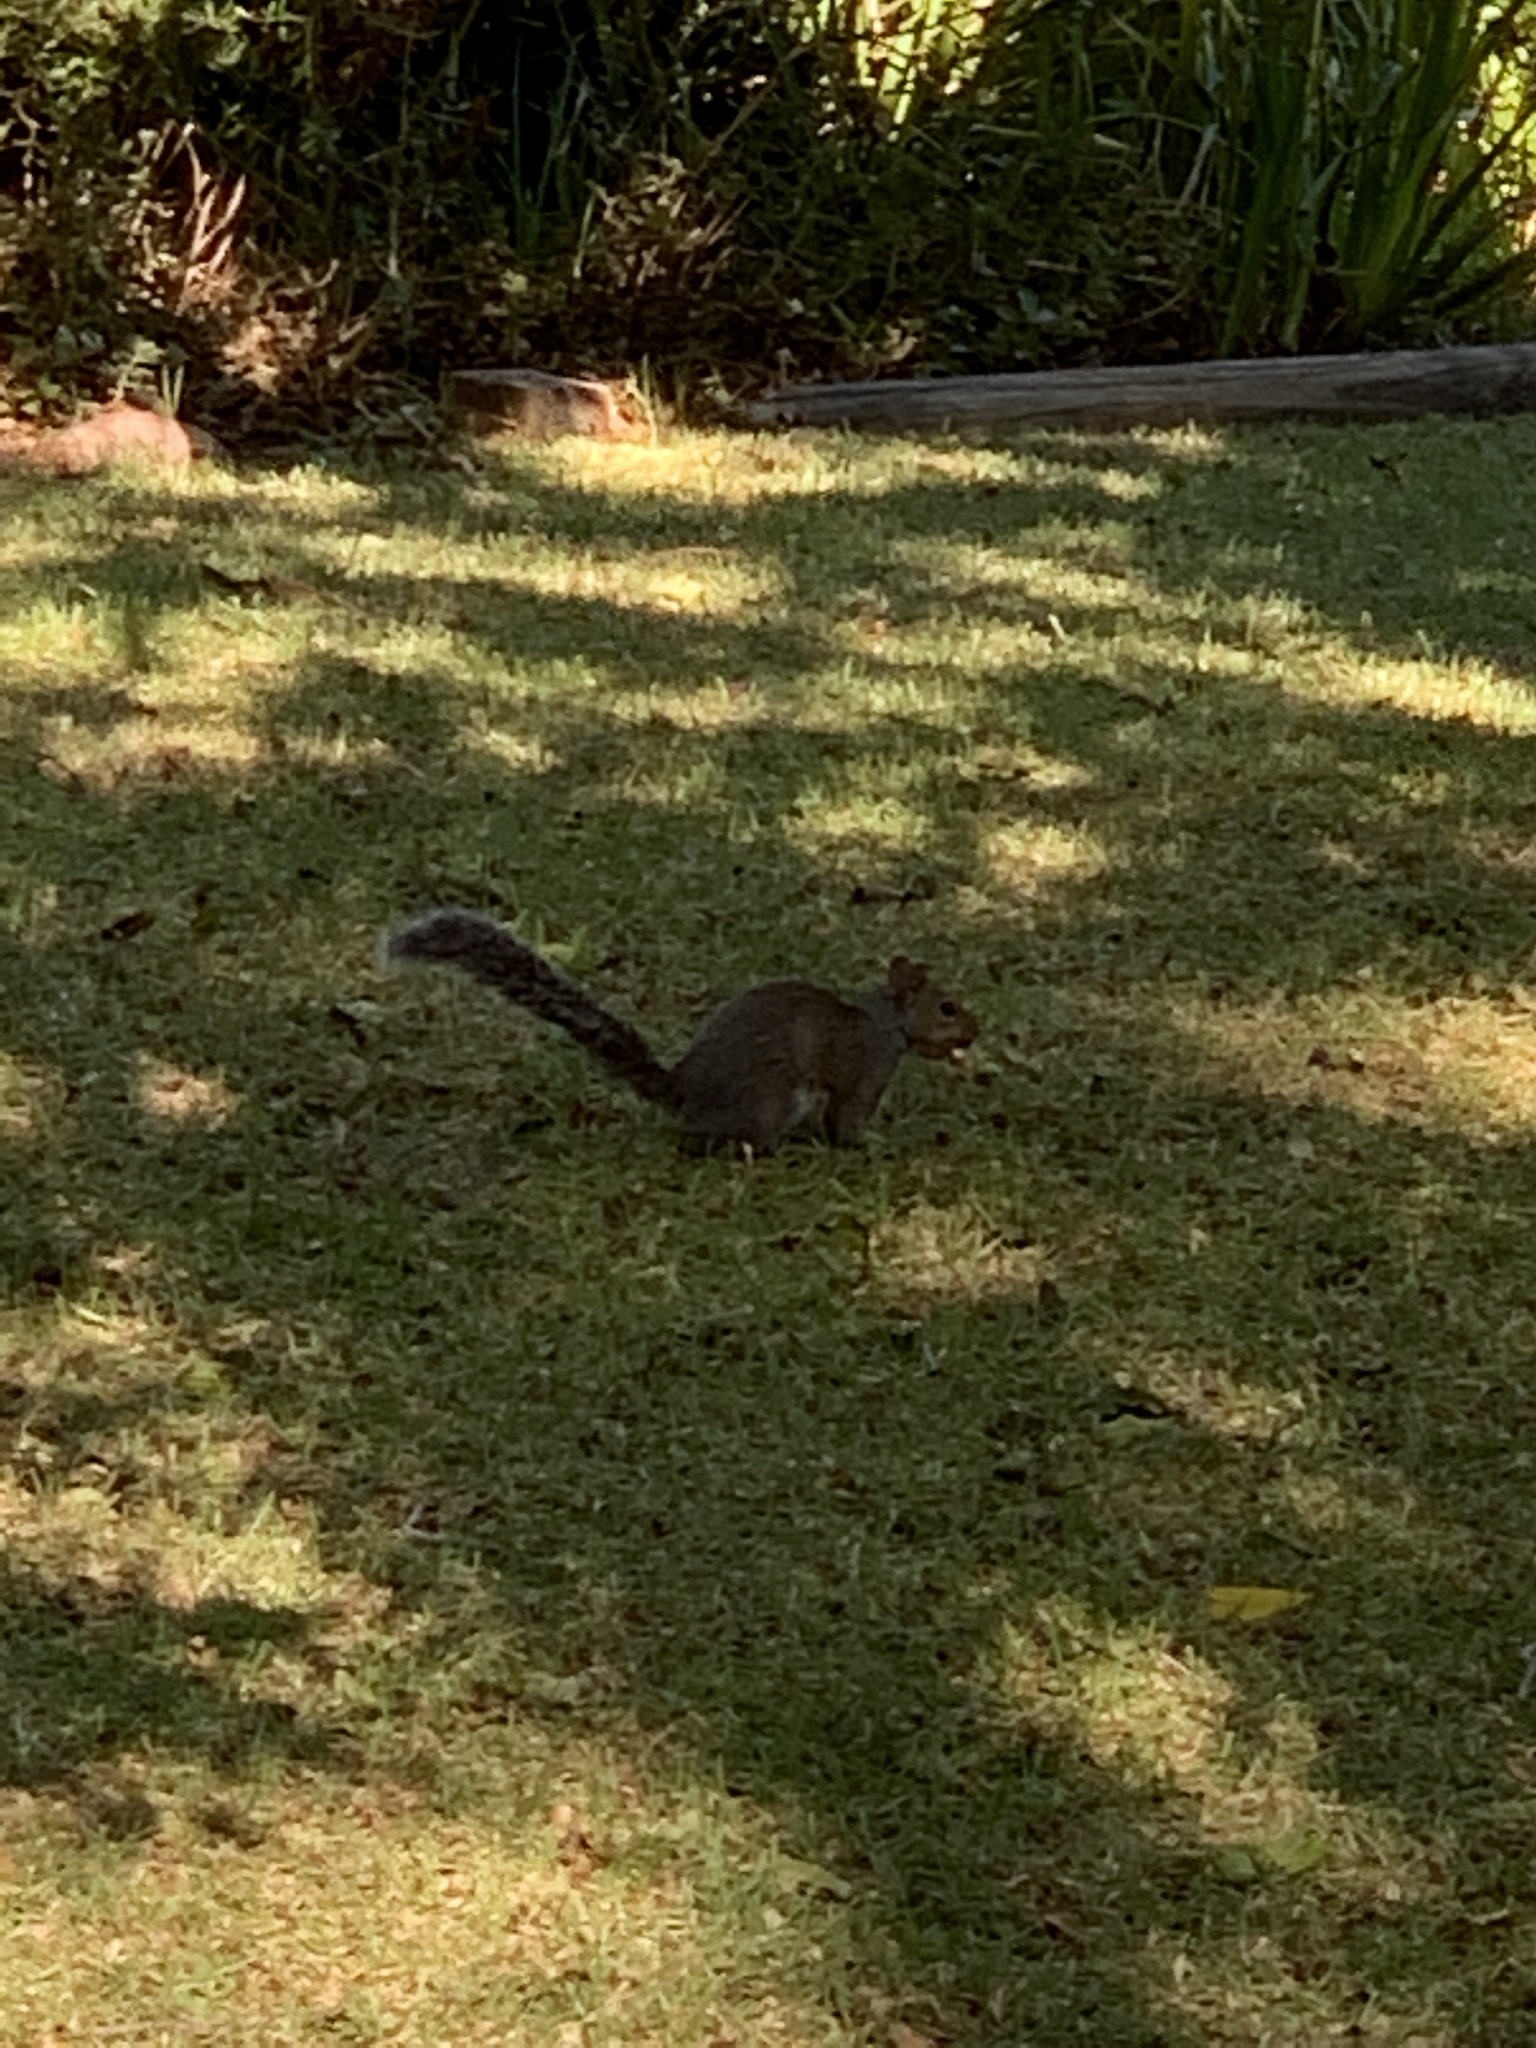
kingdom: Animalia
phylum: Chordata
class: Mammalia
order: Rodentia
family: Sciuridae
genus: Sciurus
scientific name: Sciurus carolinensis
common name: Eastern gray squirrel
